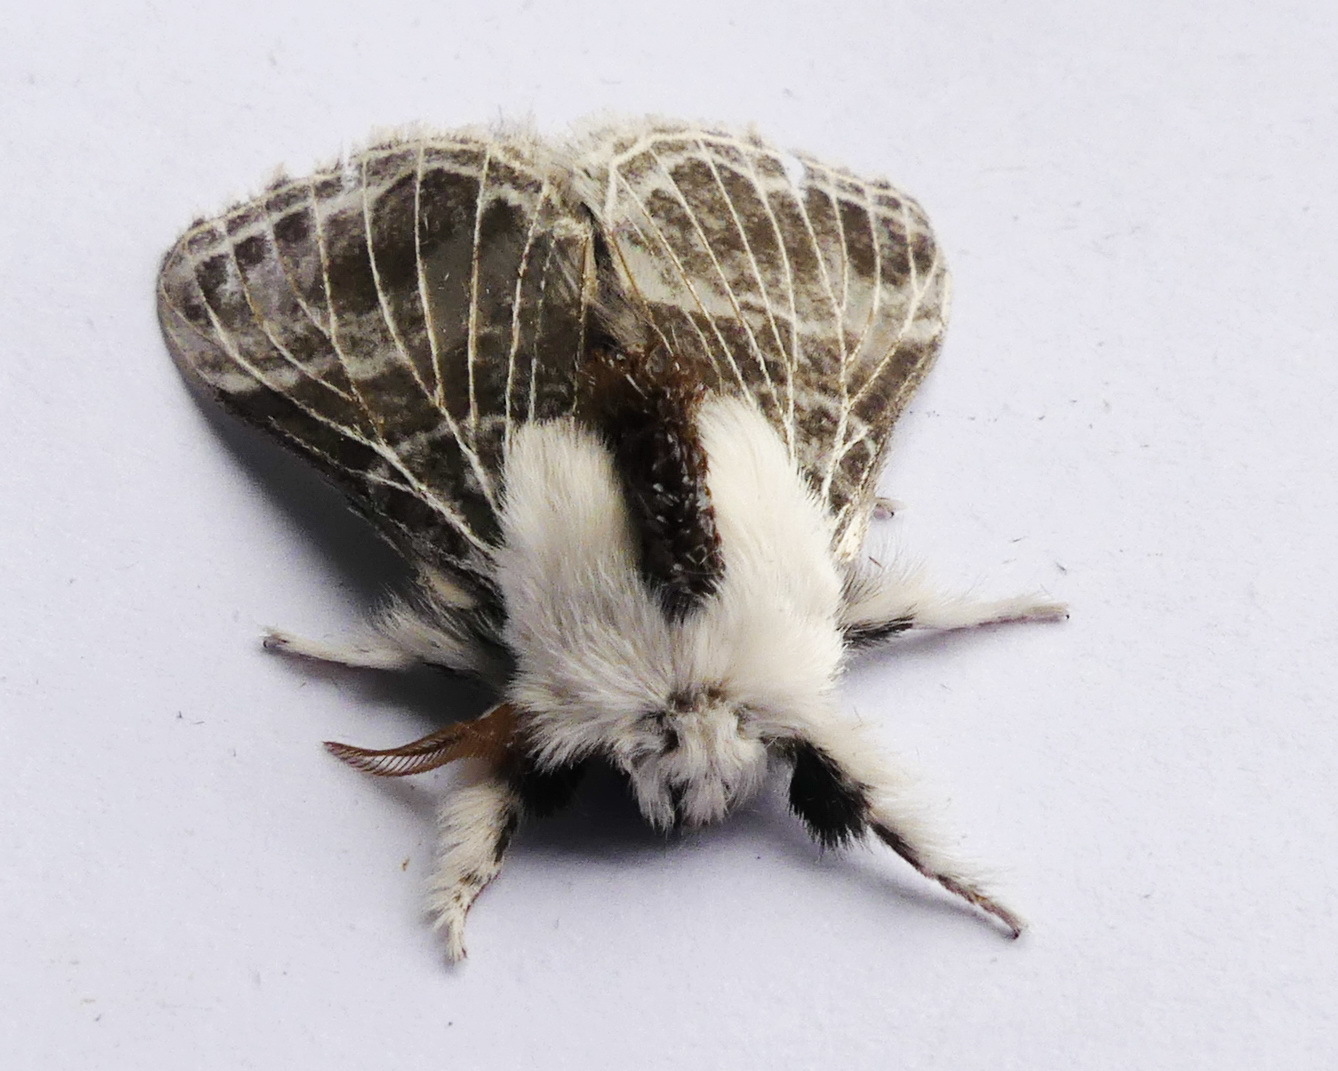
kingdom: Animalia
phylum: Arthropoda
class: Insecta
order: Lepidoptera
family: Lasiocampidae
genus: Tolype
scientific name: Tolype velleda
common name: Large tolype moth
